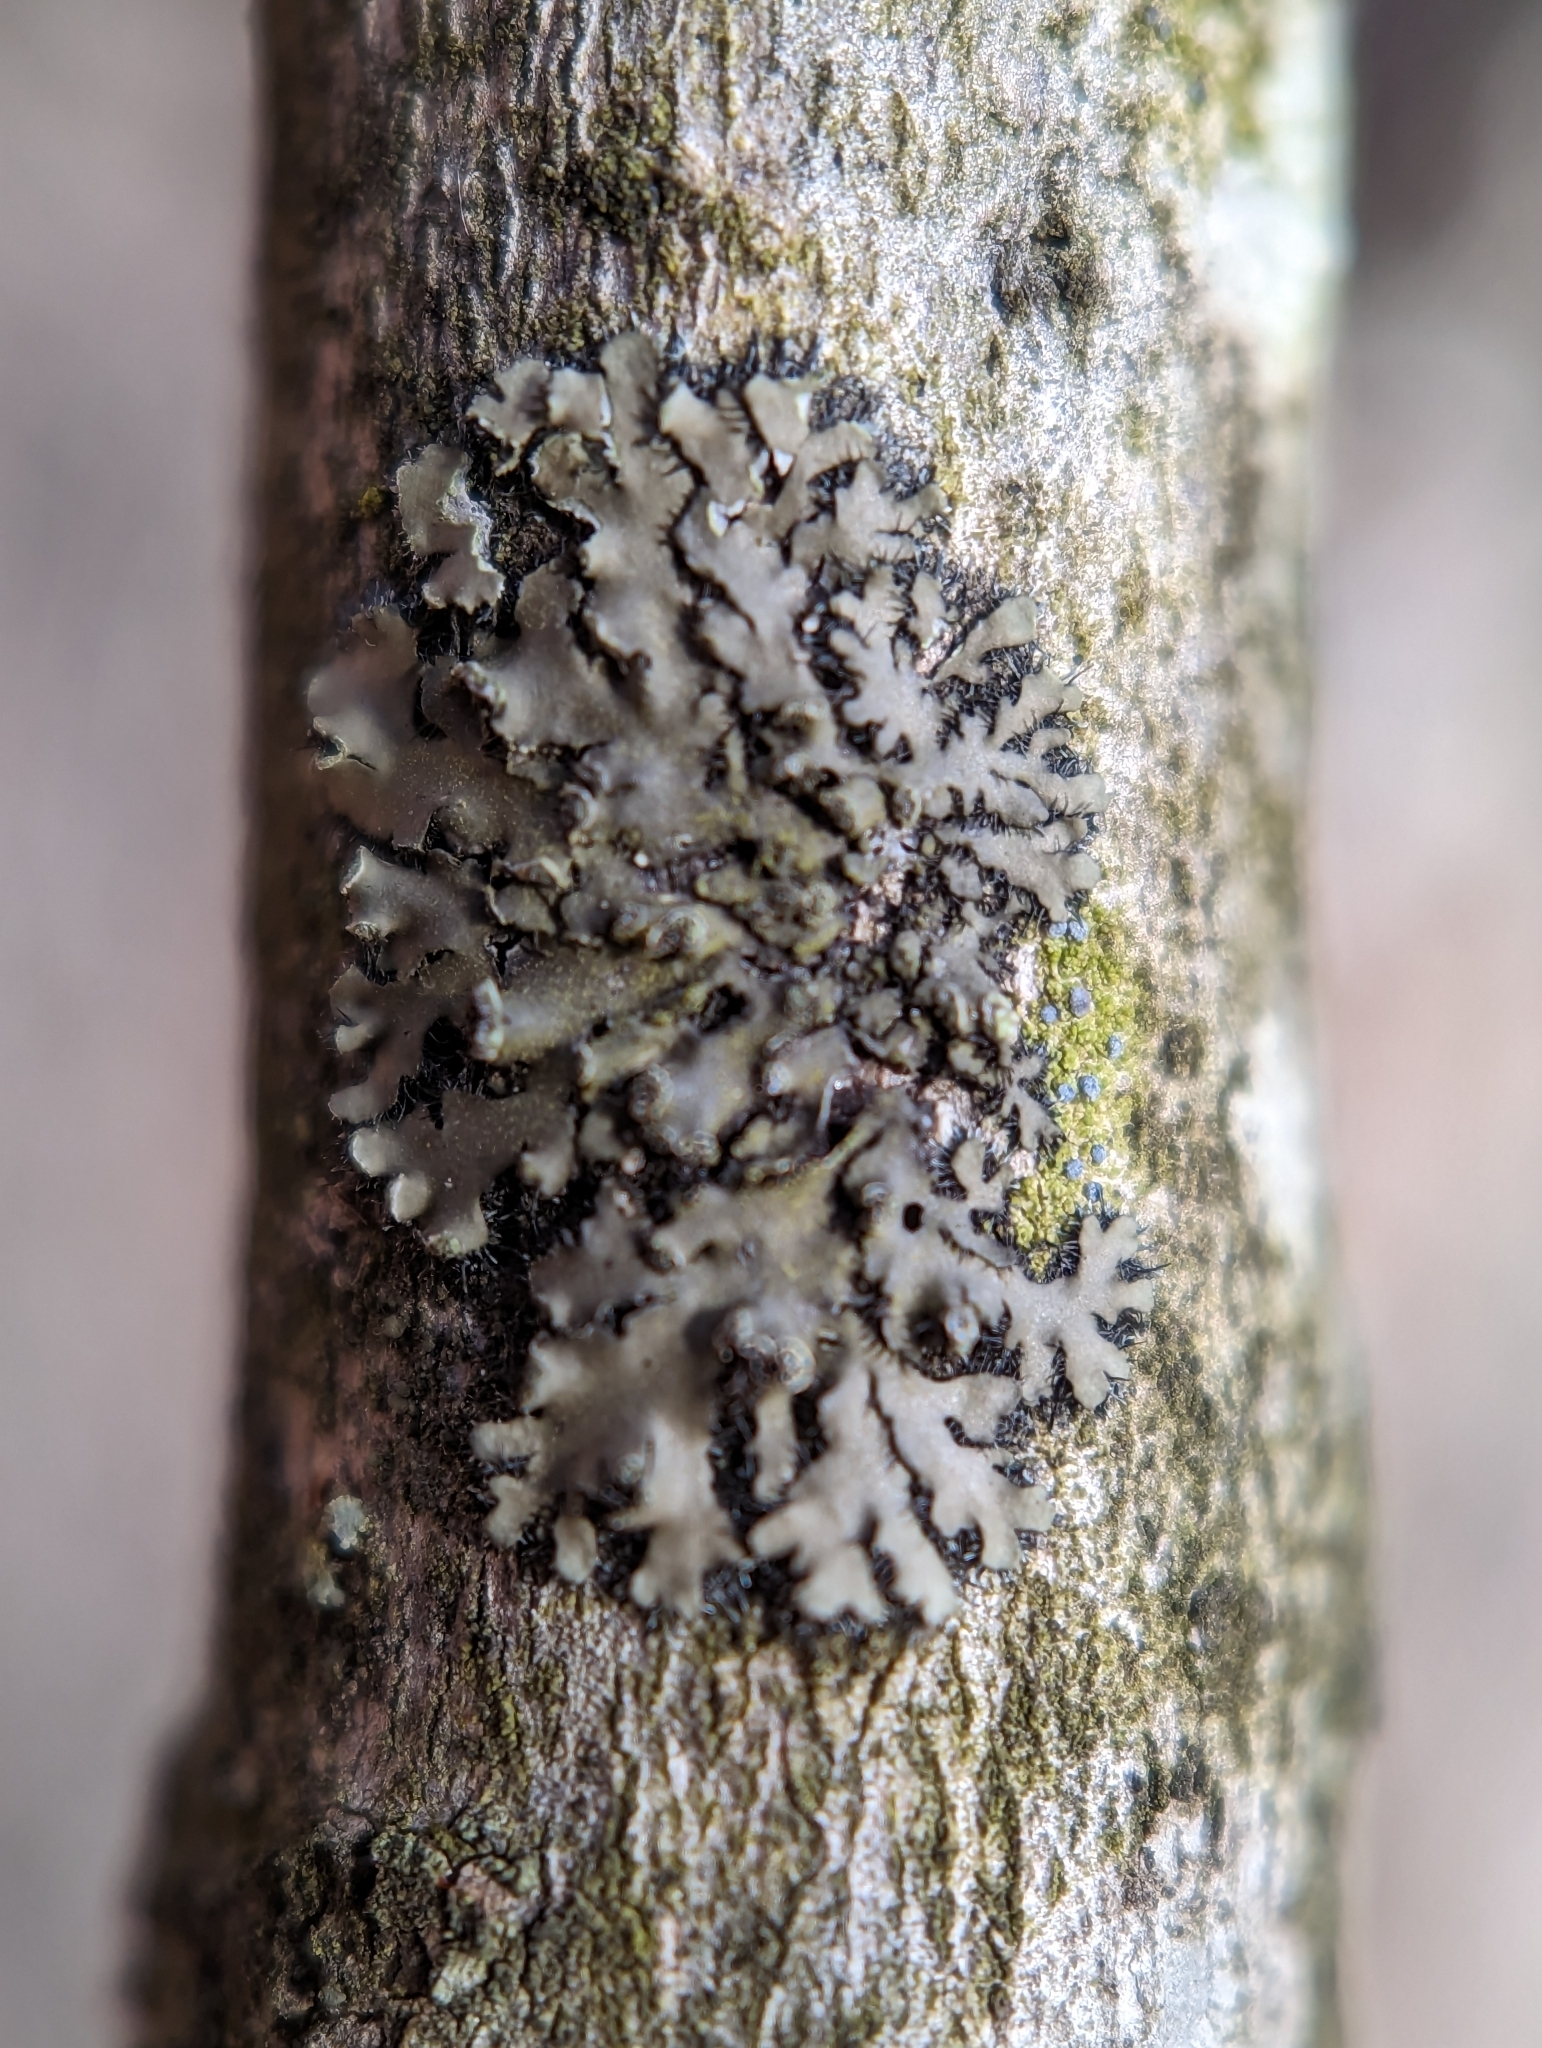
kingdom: Fungi
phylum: Ascomycota
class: Arthoniomycetes
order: Arthoniales
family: Chrysotrichaceae
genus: Chrysothrix
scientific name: Chrysothrix caesia
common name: Frosted comma lichen
